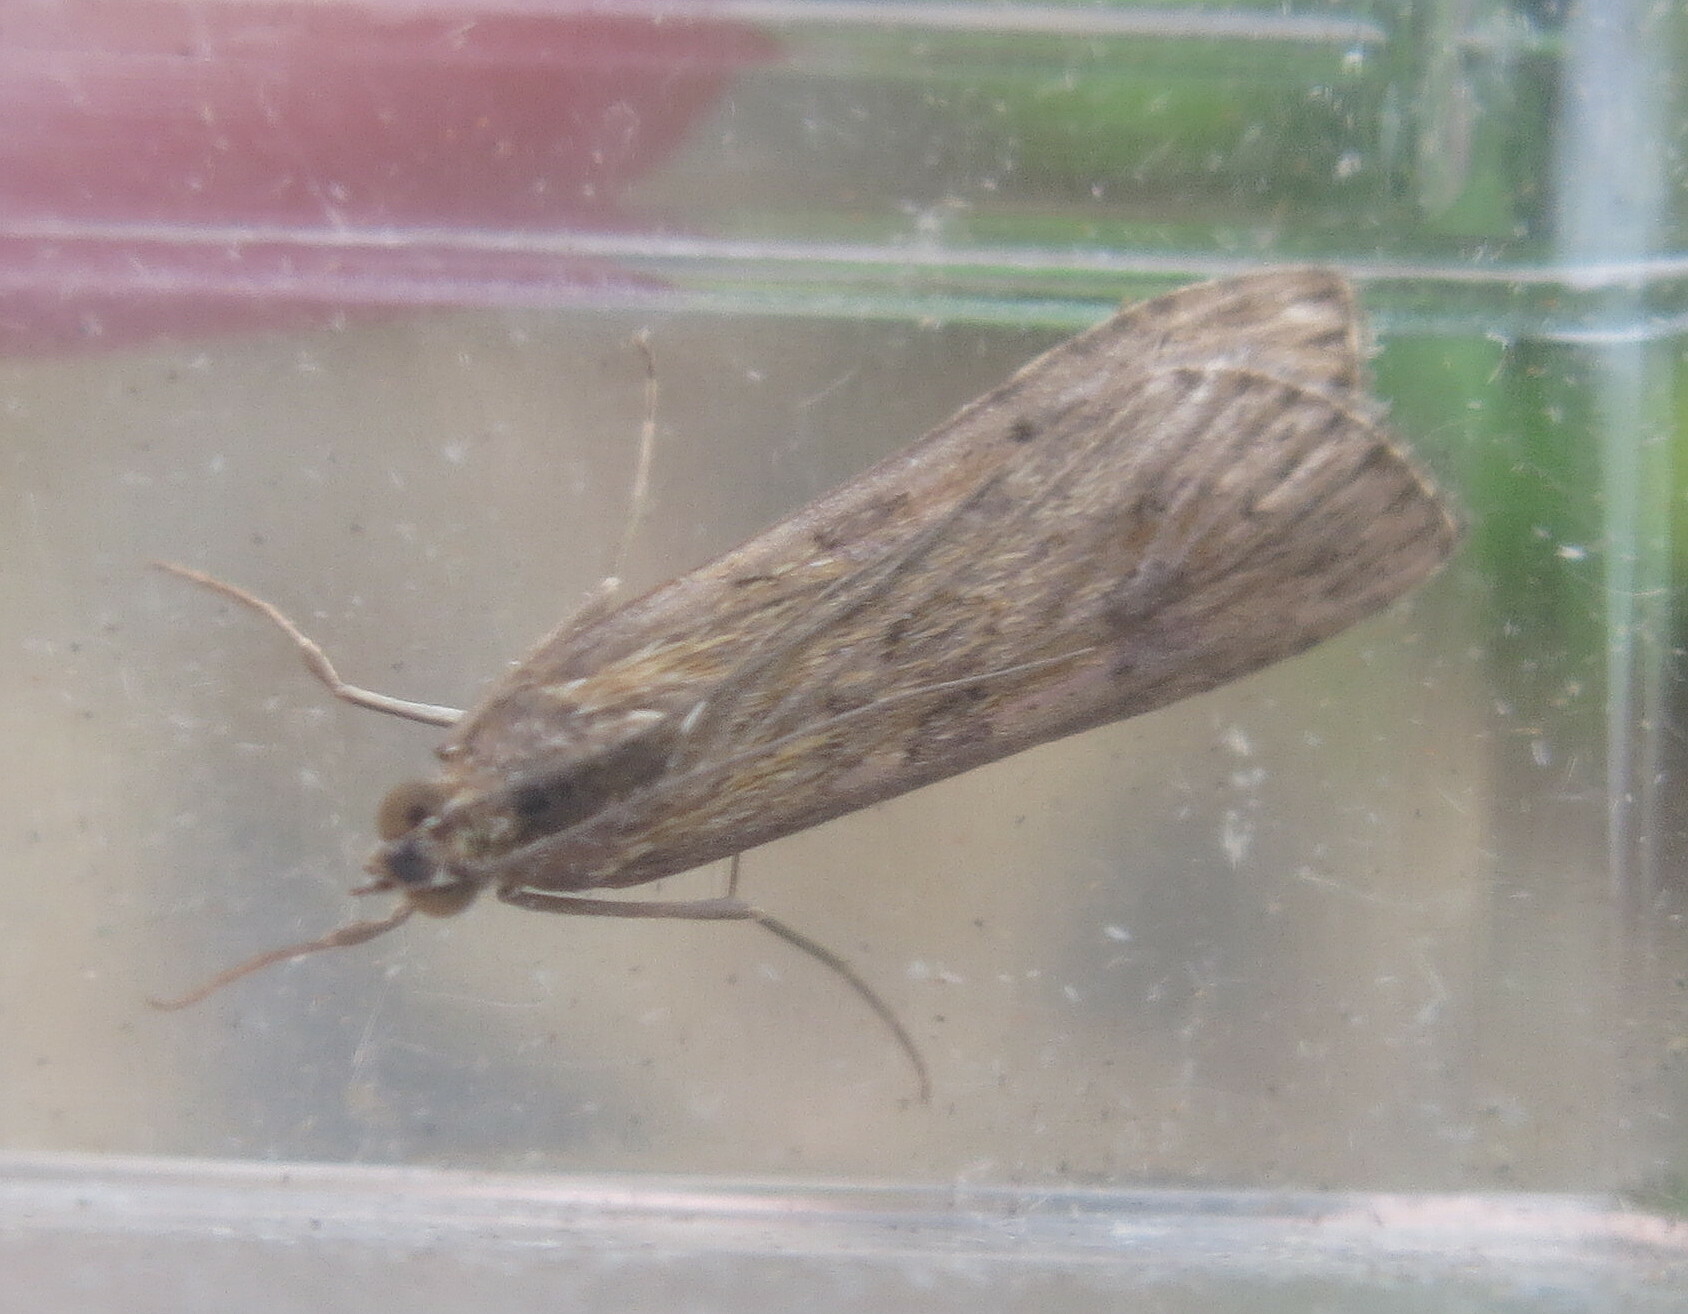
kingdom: Animalia
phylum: Arthropoda
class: Insecta
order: Lepidoptera
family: Crambidae
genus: Nomophila
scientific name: Nomophila noctuella
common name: Rush veneer
